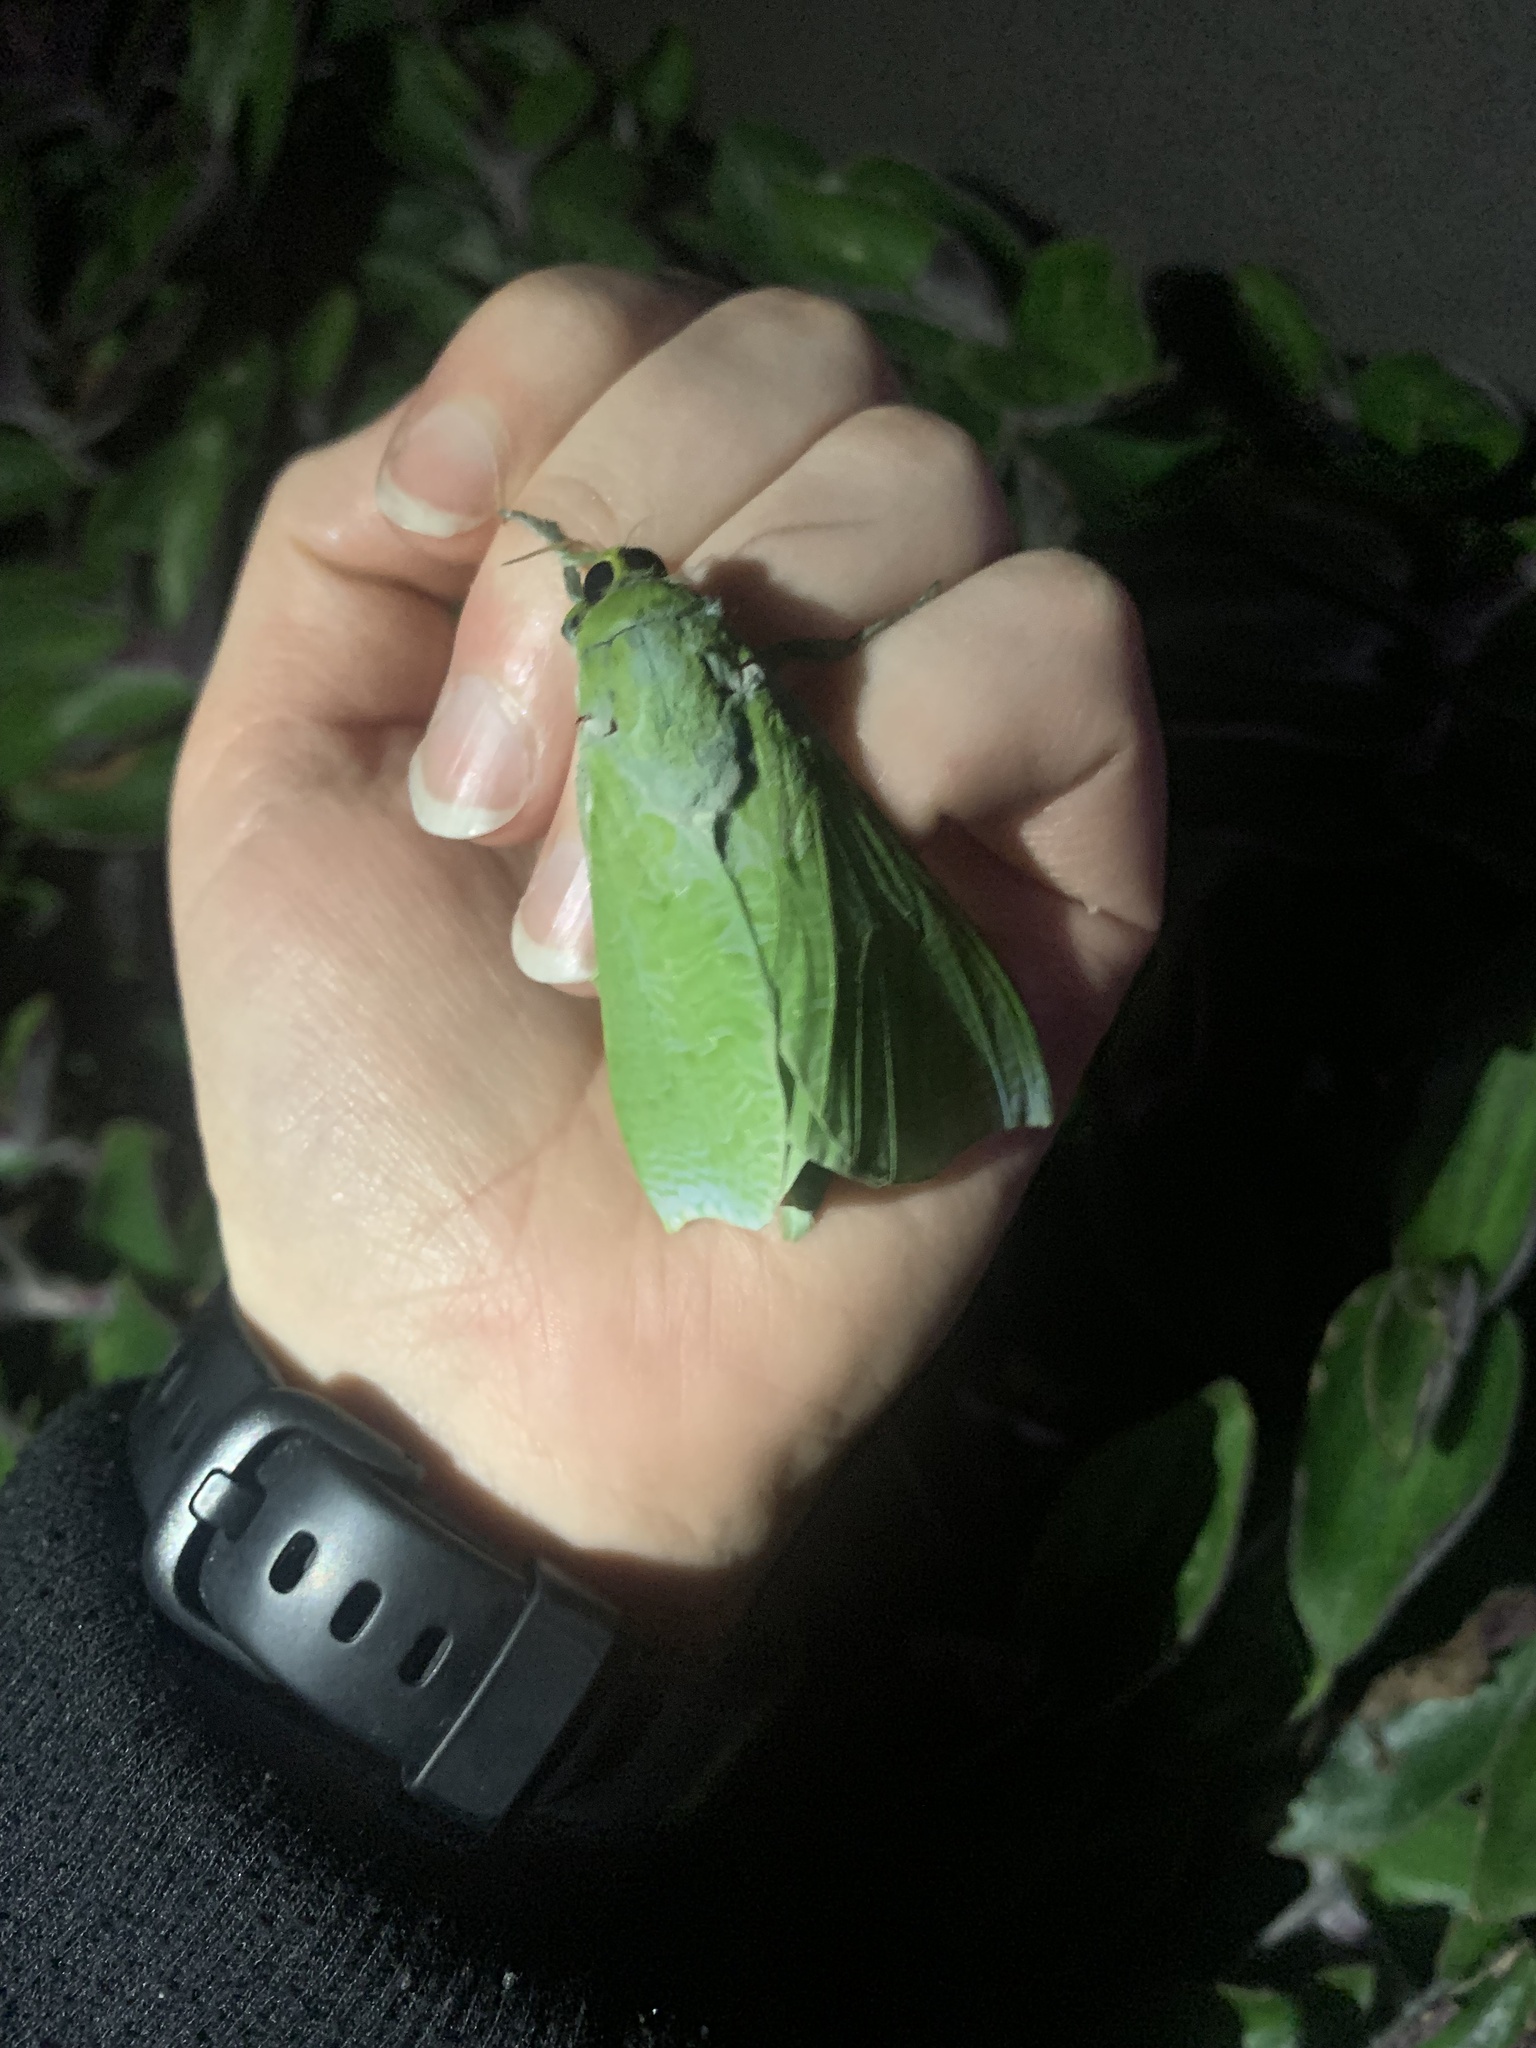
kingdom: Animalia
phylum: Arthropoda
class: Insecta
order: Lepidoptera
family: Hepialidae
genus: Aenetus
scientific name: Aenetus virescens
